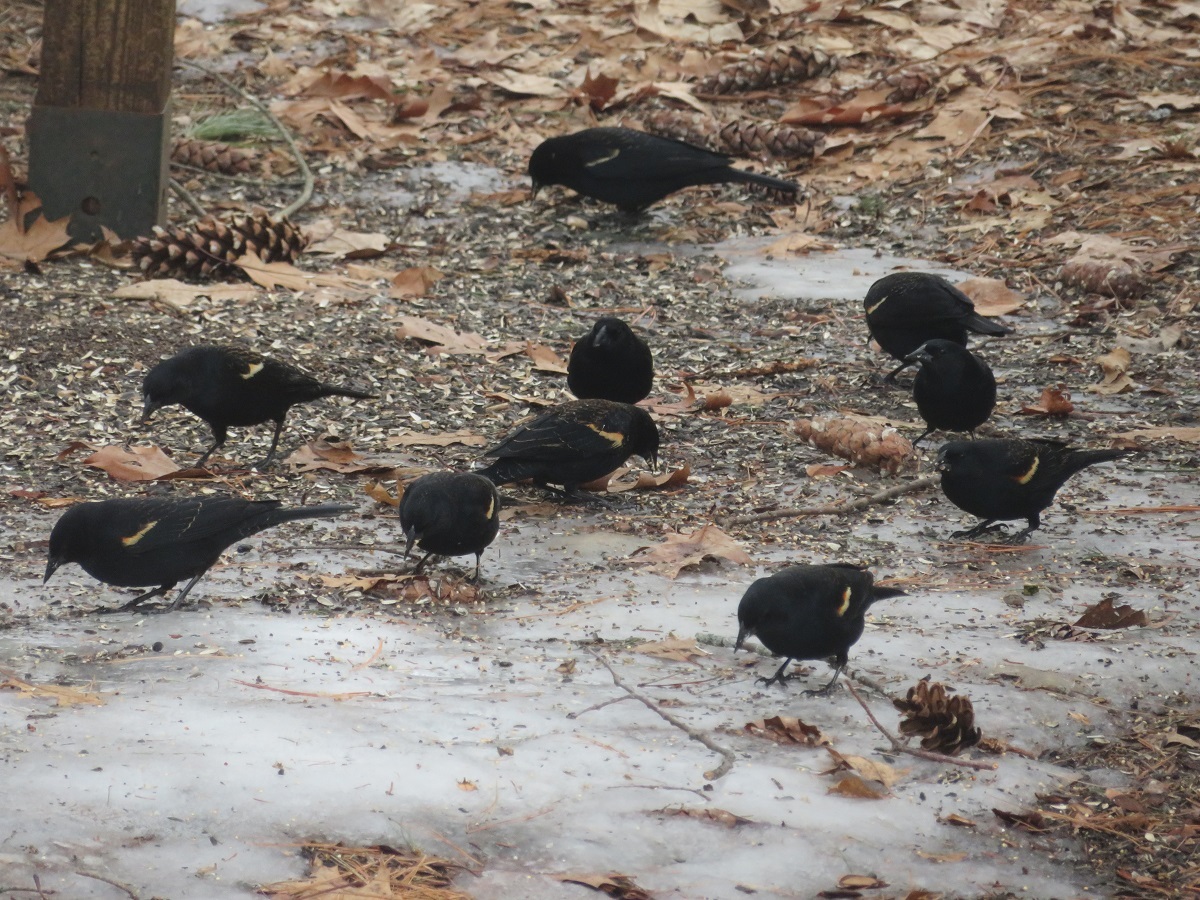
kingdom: Animalia
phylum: Chordata
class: Aves
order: Passeriformes
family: Icteridae
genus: Agelaius
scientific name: Agelaius phoeniceus
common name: Red-winged blackbird
